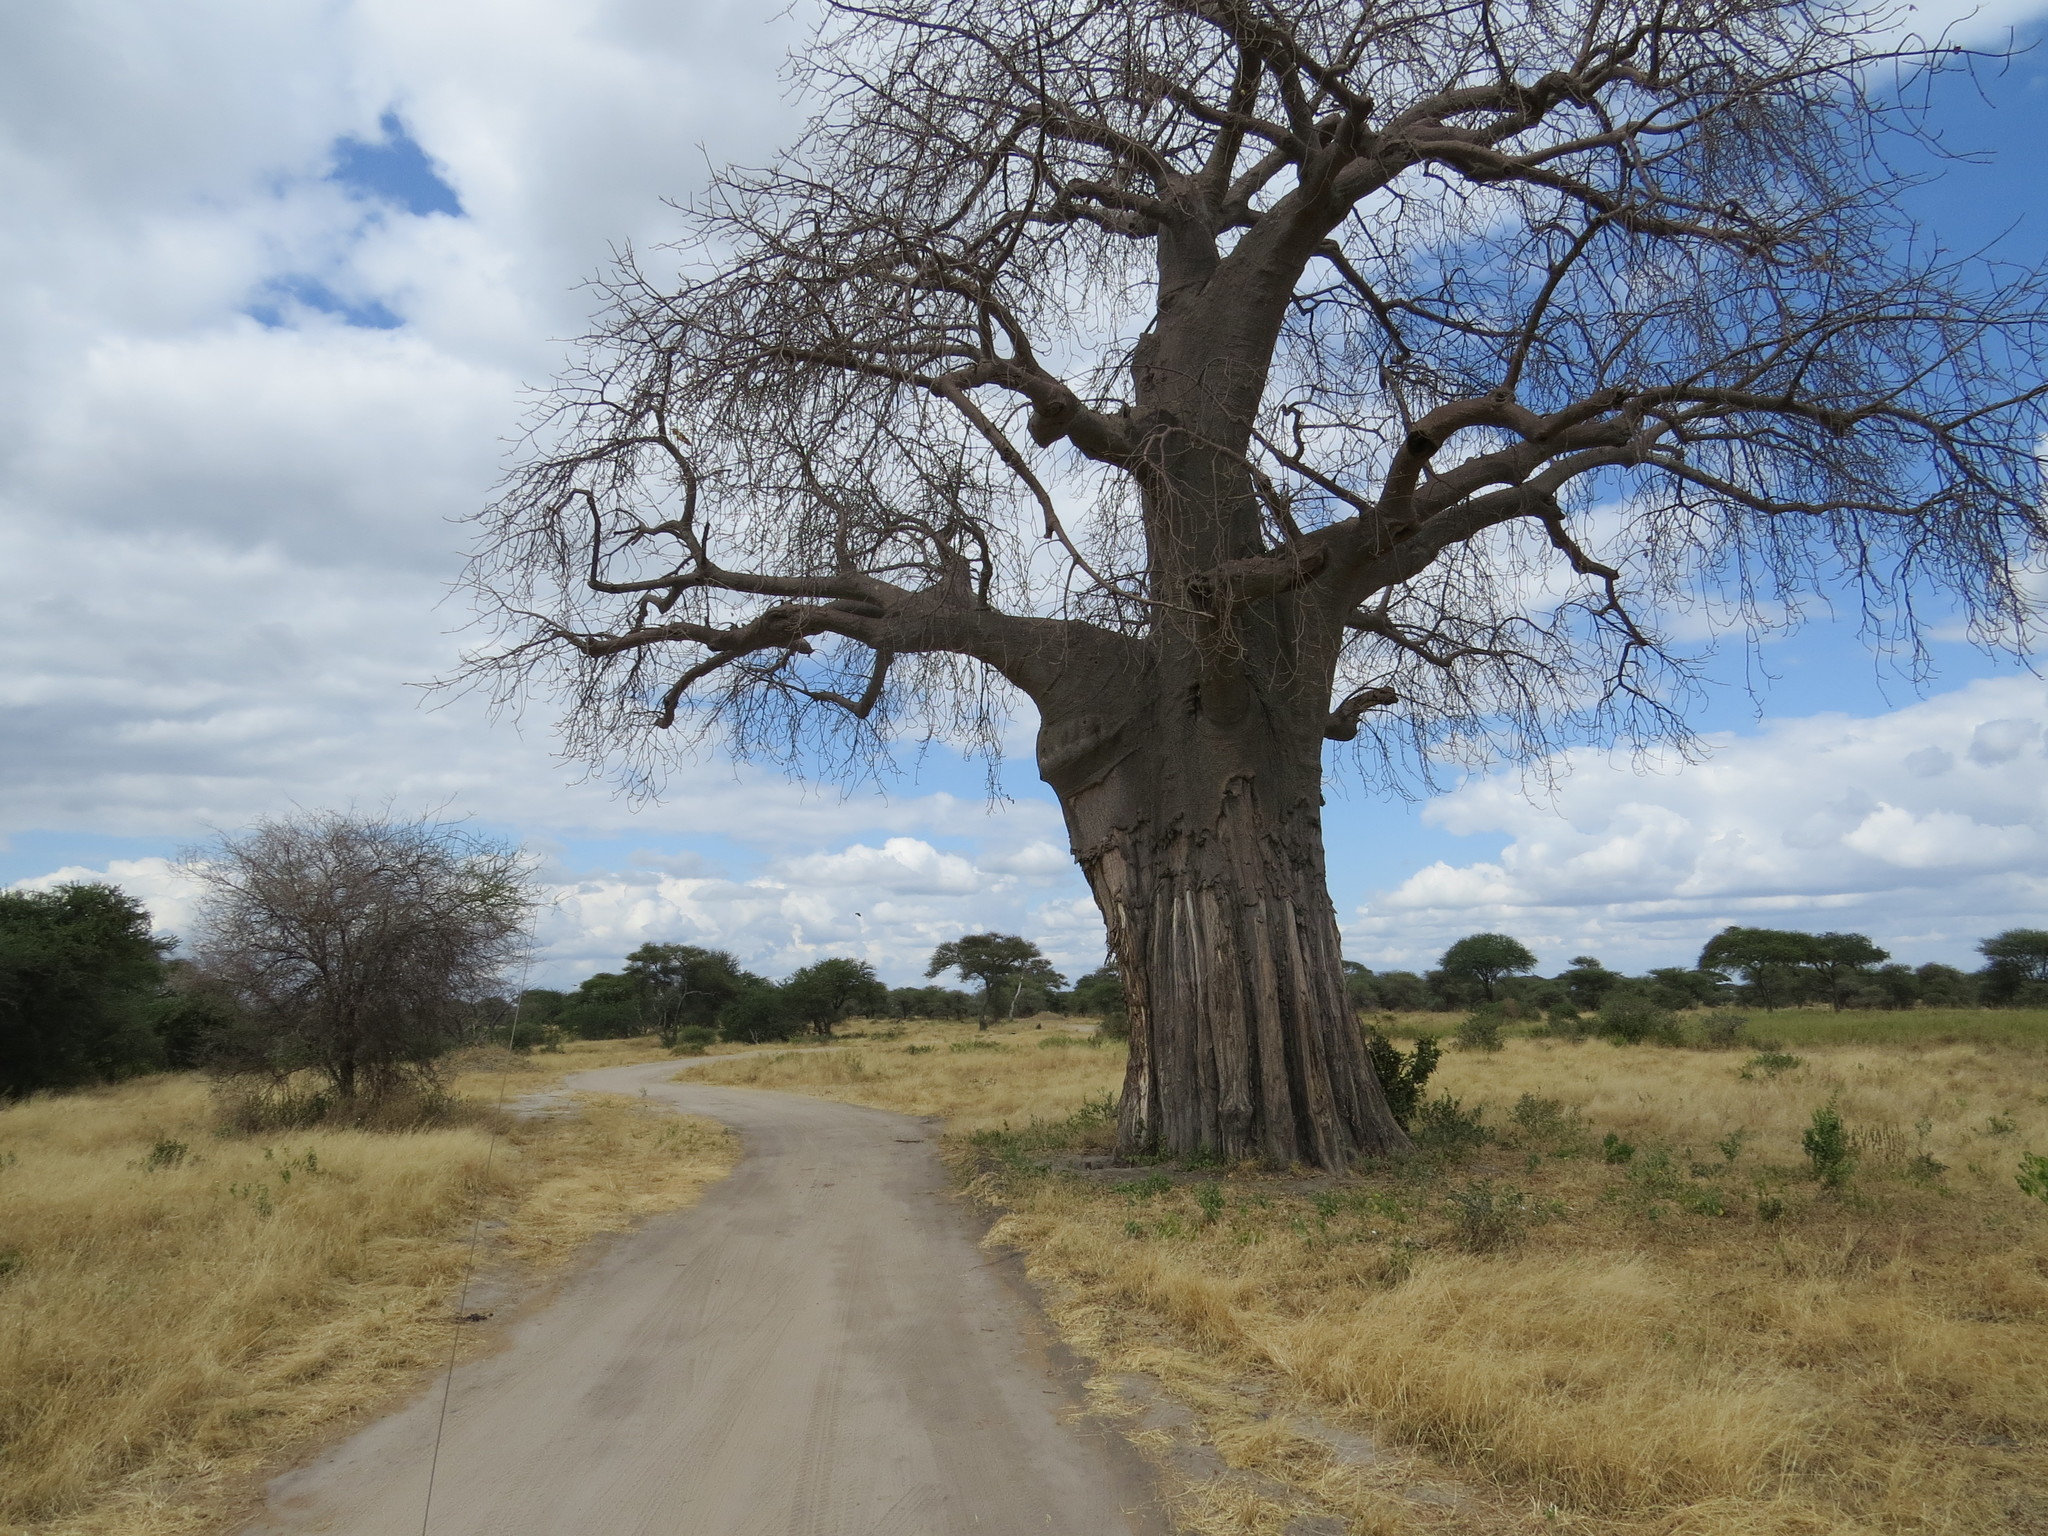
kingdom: Plantae
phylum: Tracheophyta
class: Magnoliopsida
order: Malvales
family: Malvaceae
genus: Adansonia
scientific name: Adansonia digitata
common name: Dead-rat-tree
